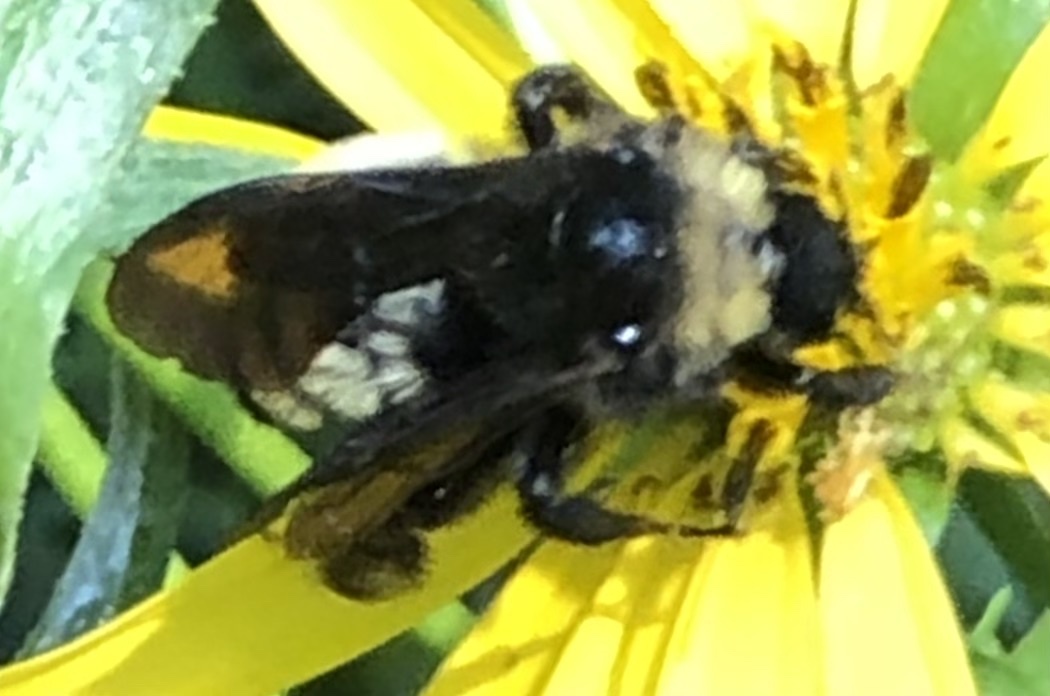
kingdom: Animalia
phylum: Arthropoda
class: Insecta
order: Hymenoptera
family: Apidae
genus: Bombus
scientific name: Bombus pensylvanicus
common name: Bumble bee
